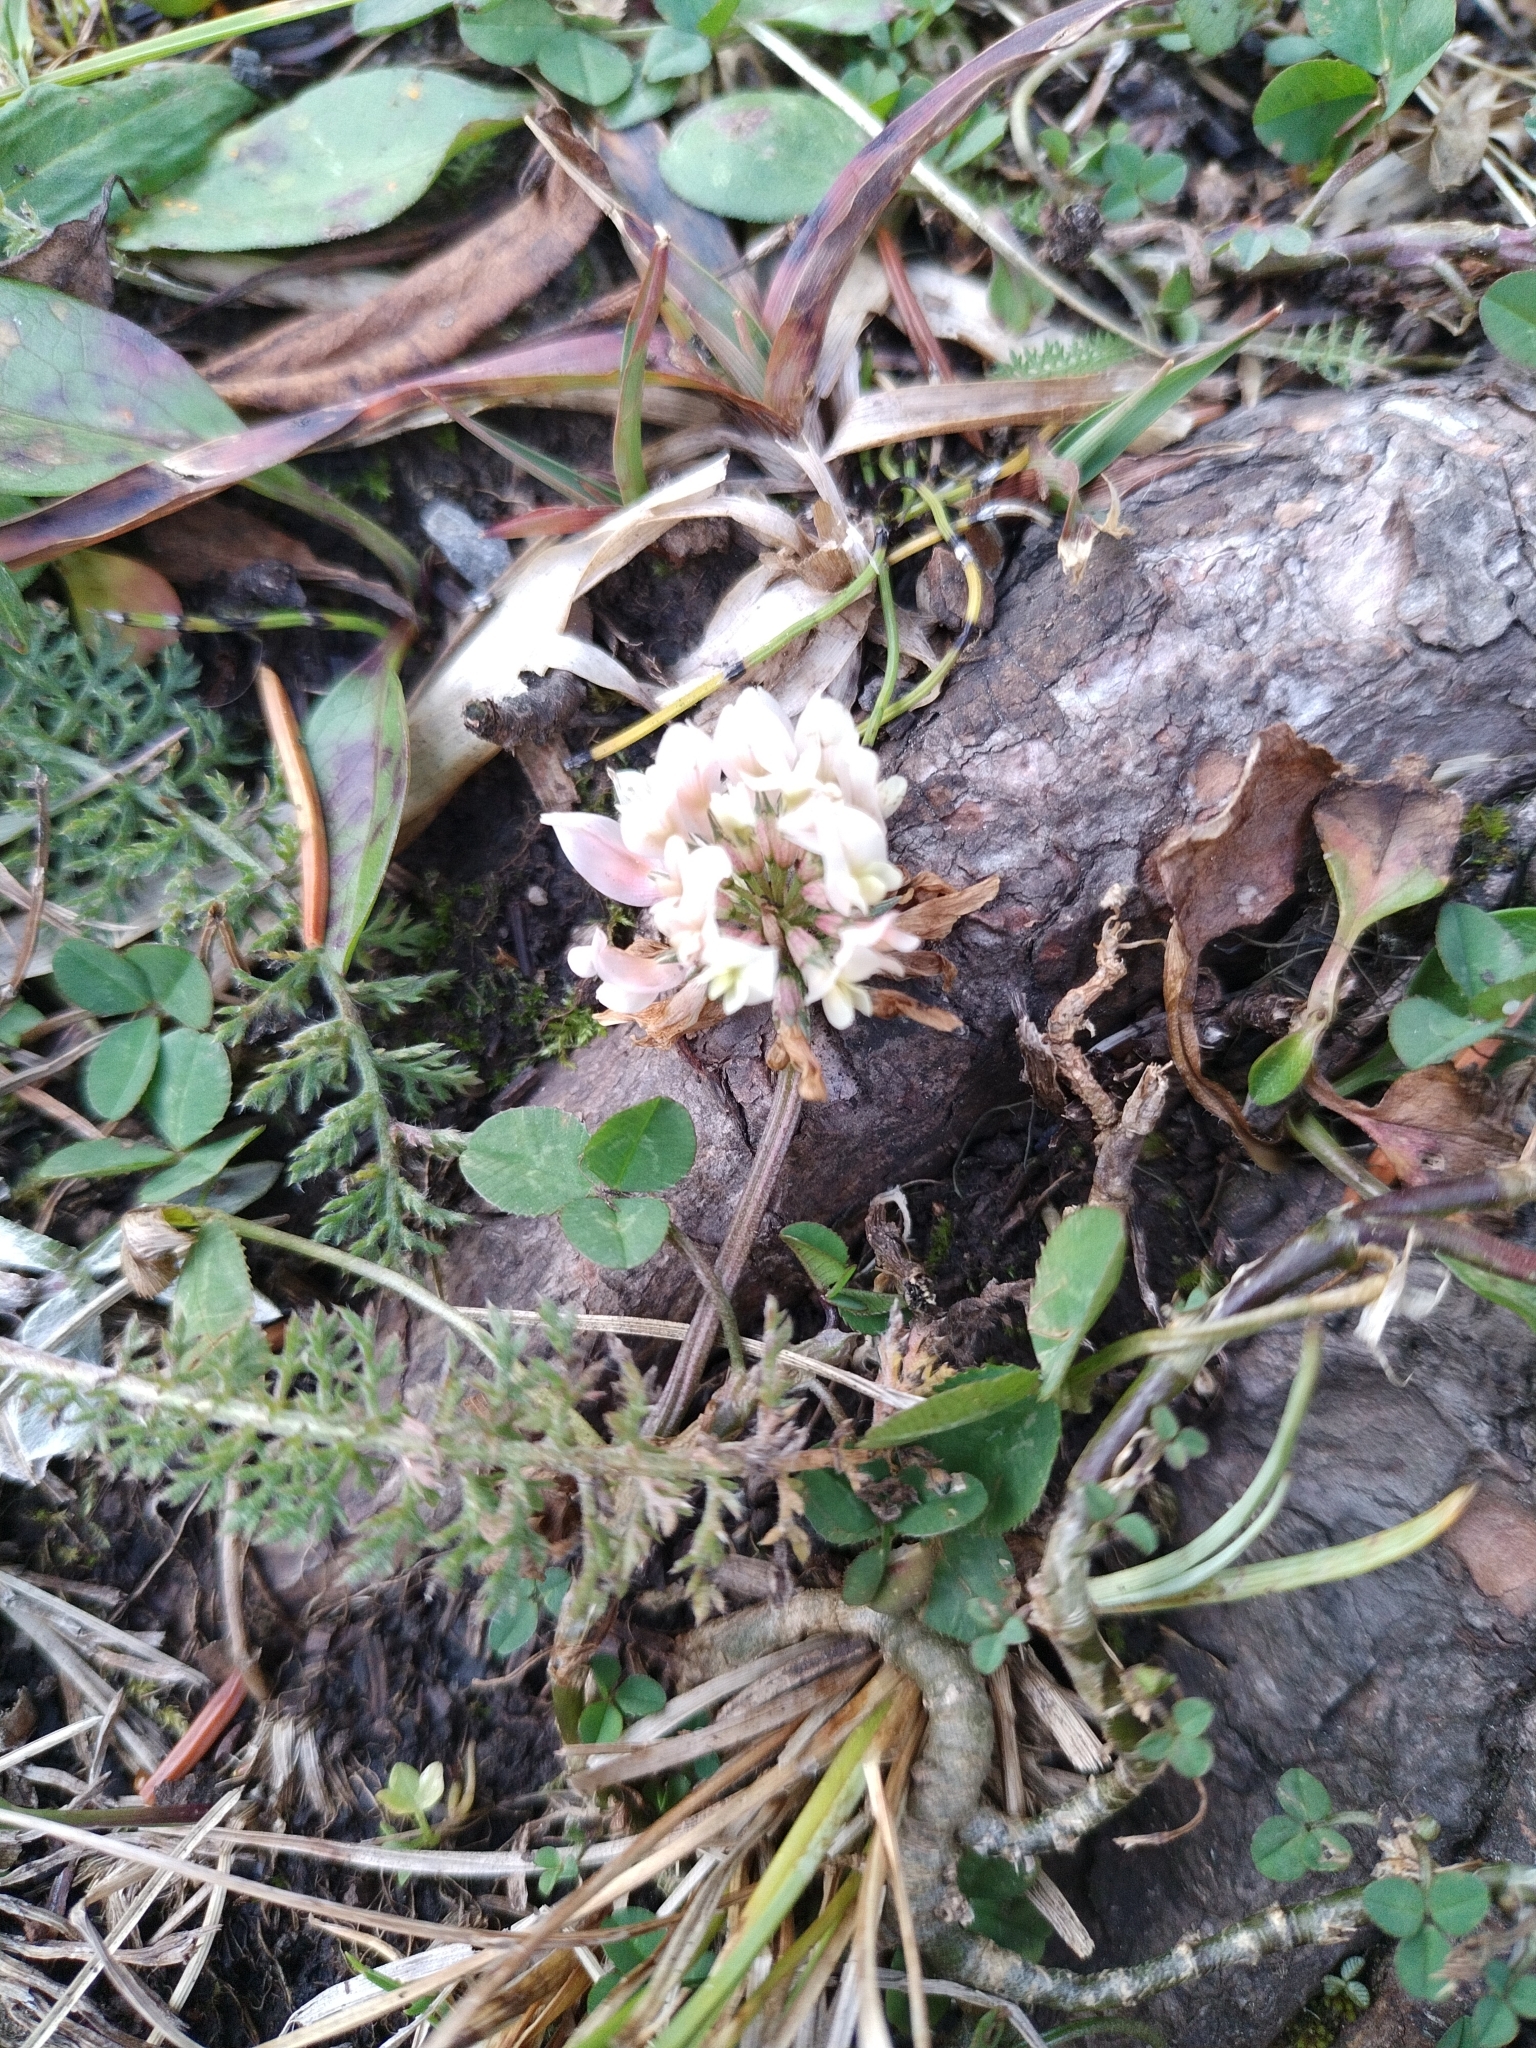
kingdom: Plantae
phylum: Tracheophyta
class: Magnoliopsida
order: Fabales
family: Fabaceae
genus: Trifolium
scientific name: Trifolium repens
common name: White clover
